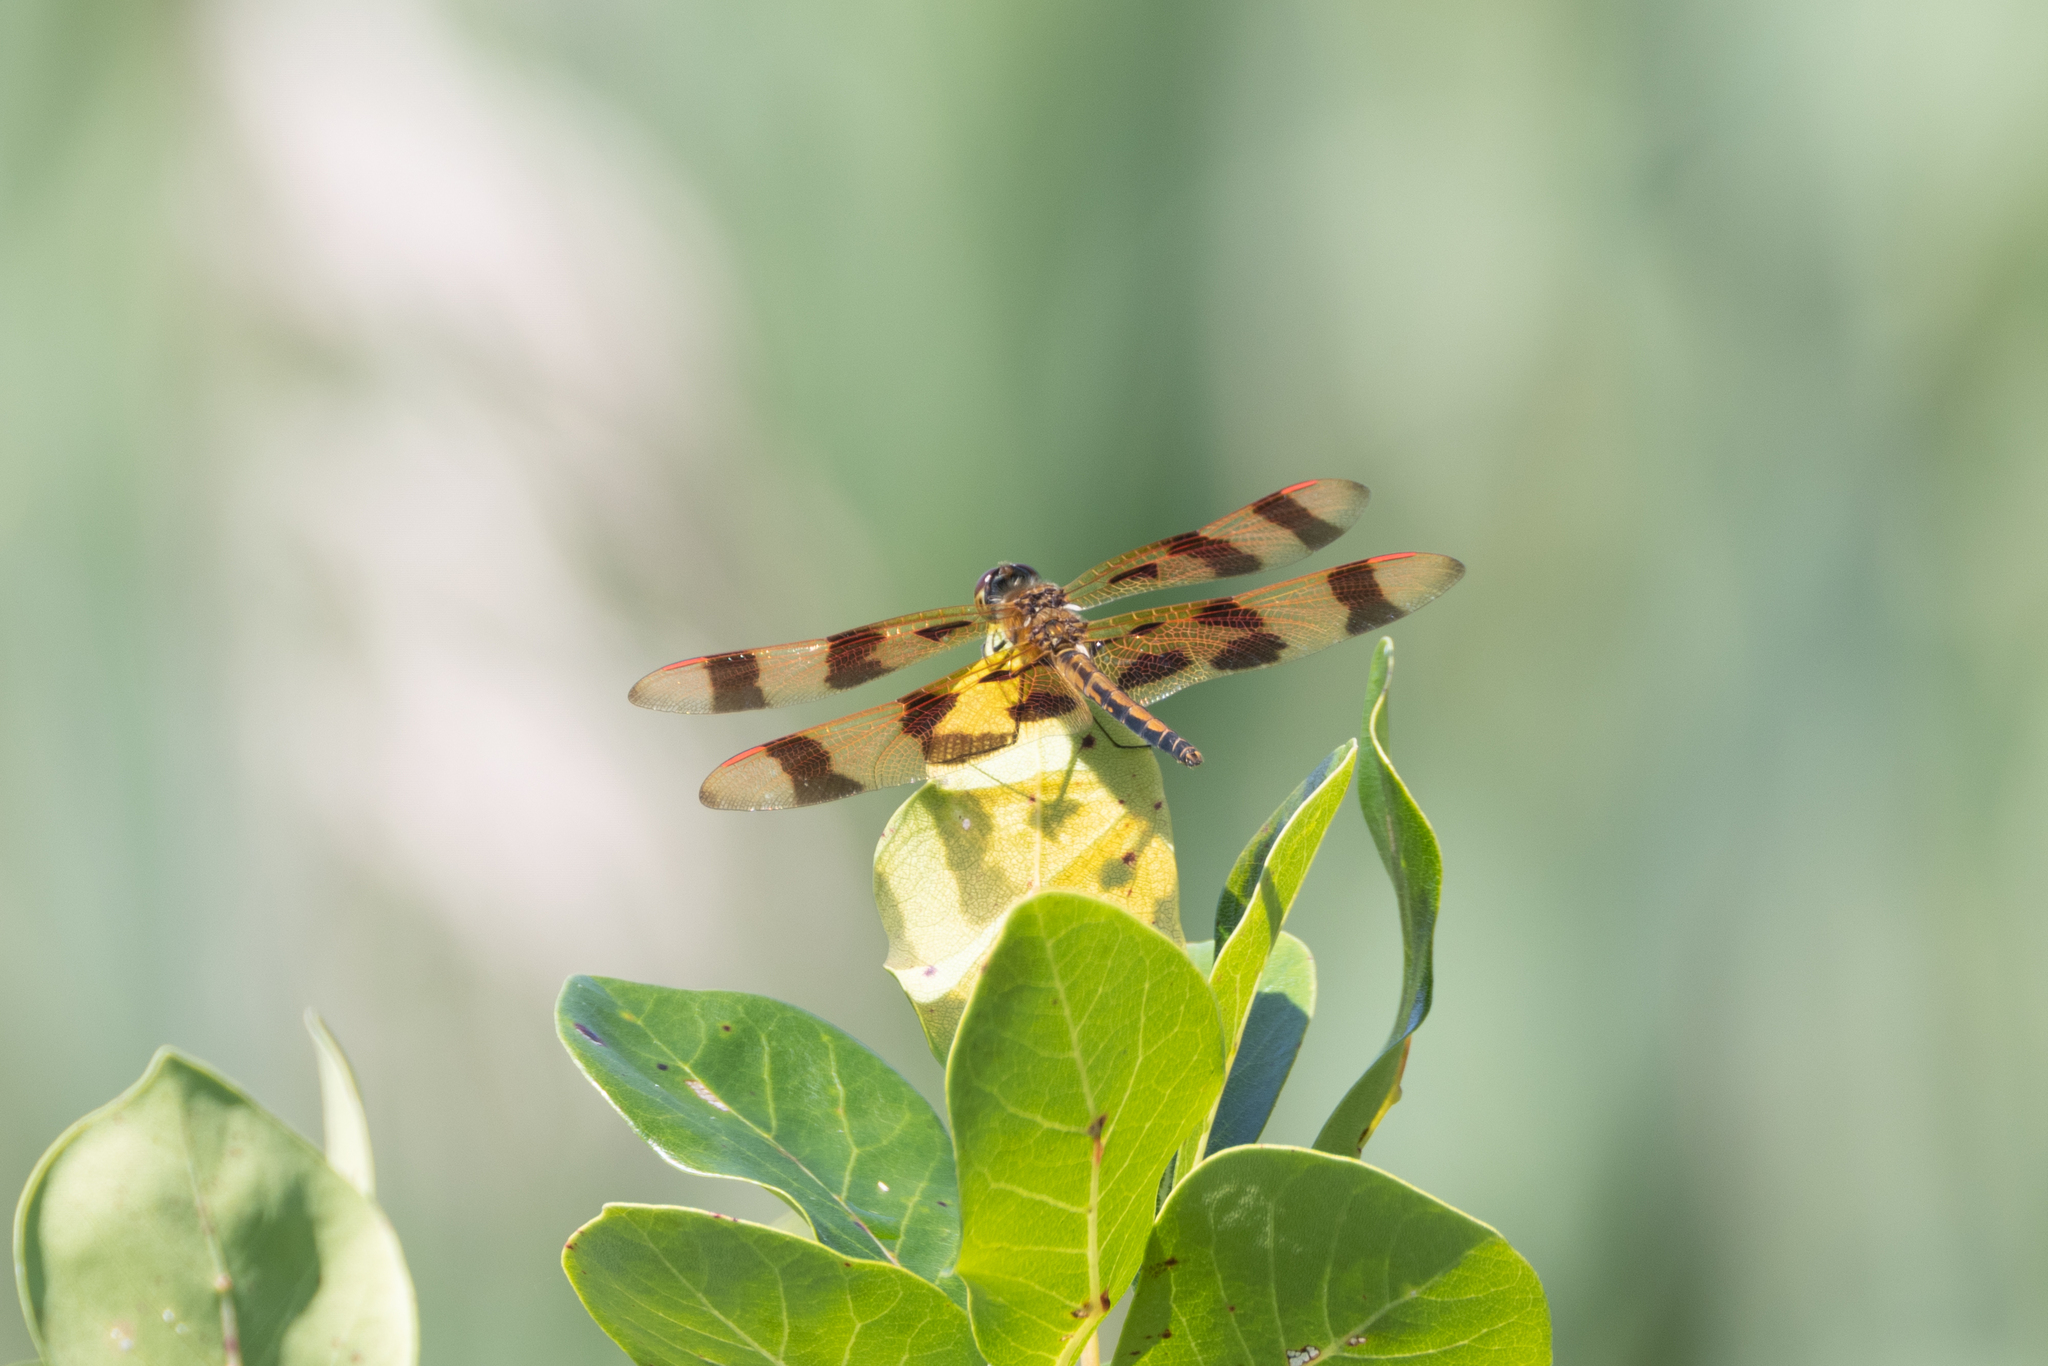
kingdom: Animalia
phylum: Arthropoda
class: Insecta
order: Odonata
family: Libellulidae
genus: Celithemis
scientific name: Celithemis eponina
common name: Halloween pennant
